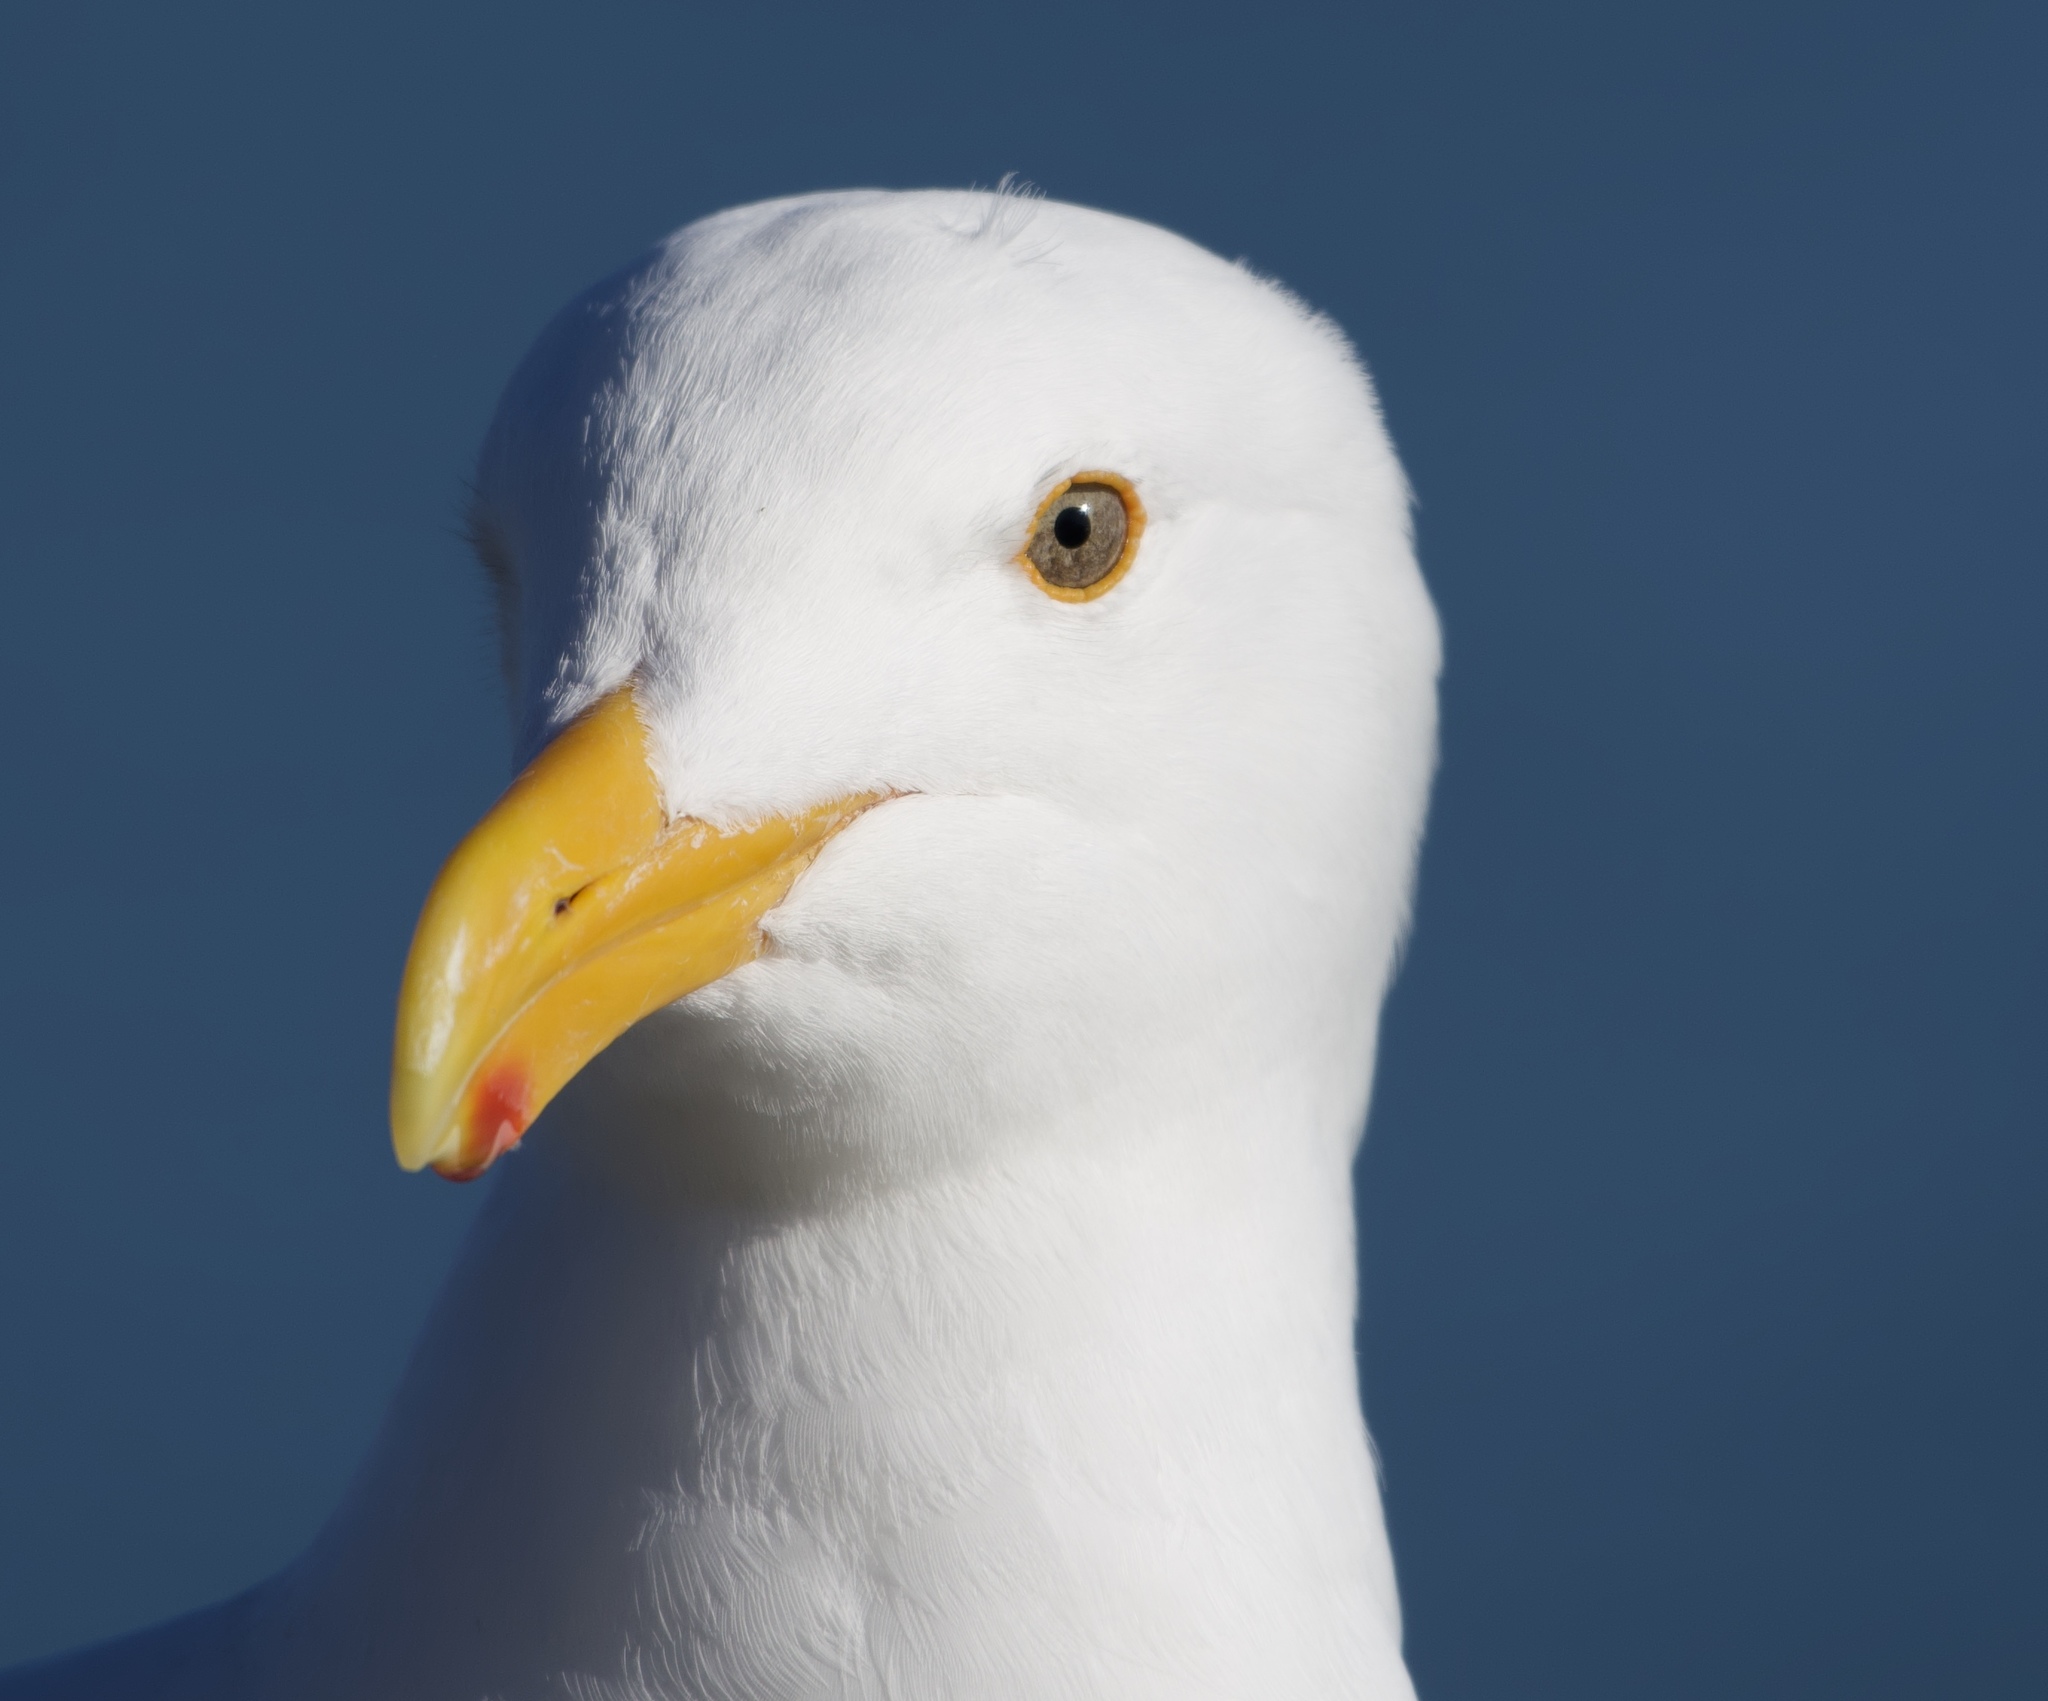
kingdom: Animalia
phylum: Chordata
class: Aves
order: Charadriiformes
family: Laridae
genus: Larus
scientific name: Larus occidentalis
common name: Western gull
